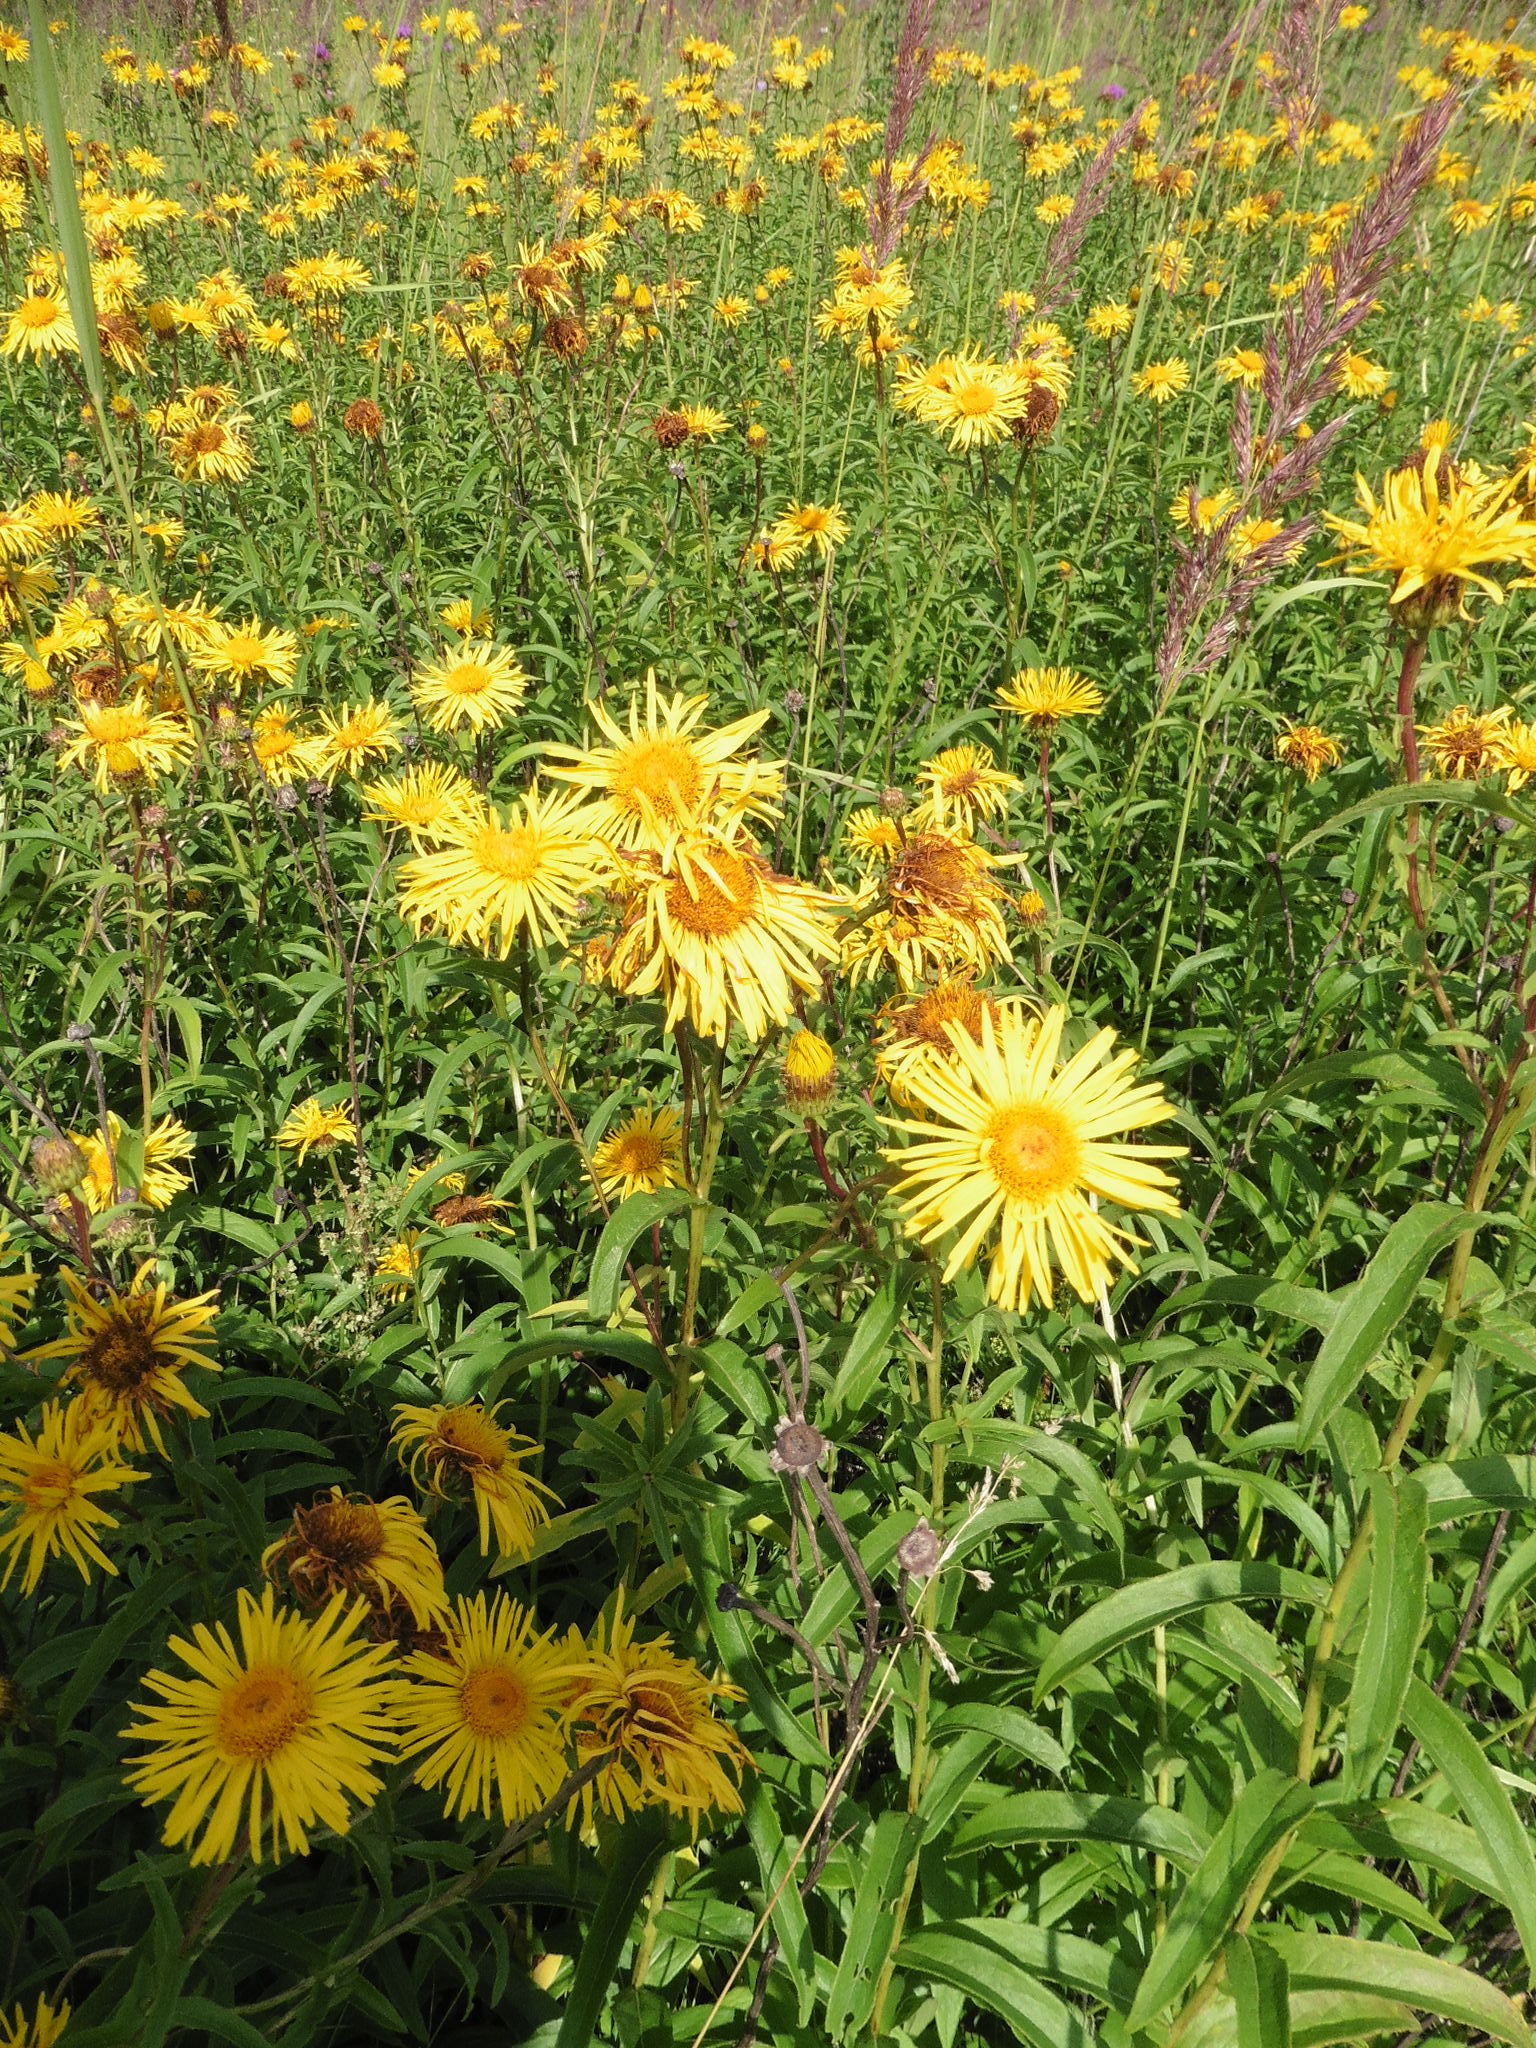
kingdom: Plantae
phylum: Tracheophyta
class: Magnoliopsida
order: Asterales
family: Asteraceae
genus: Pentanema
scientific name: Pentanema salicinum
